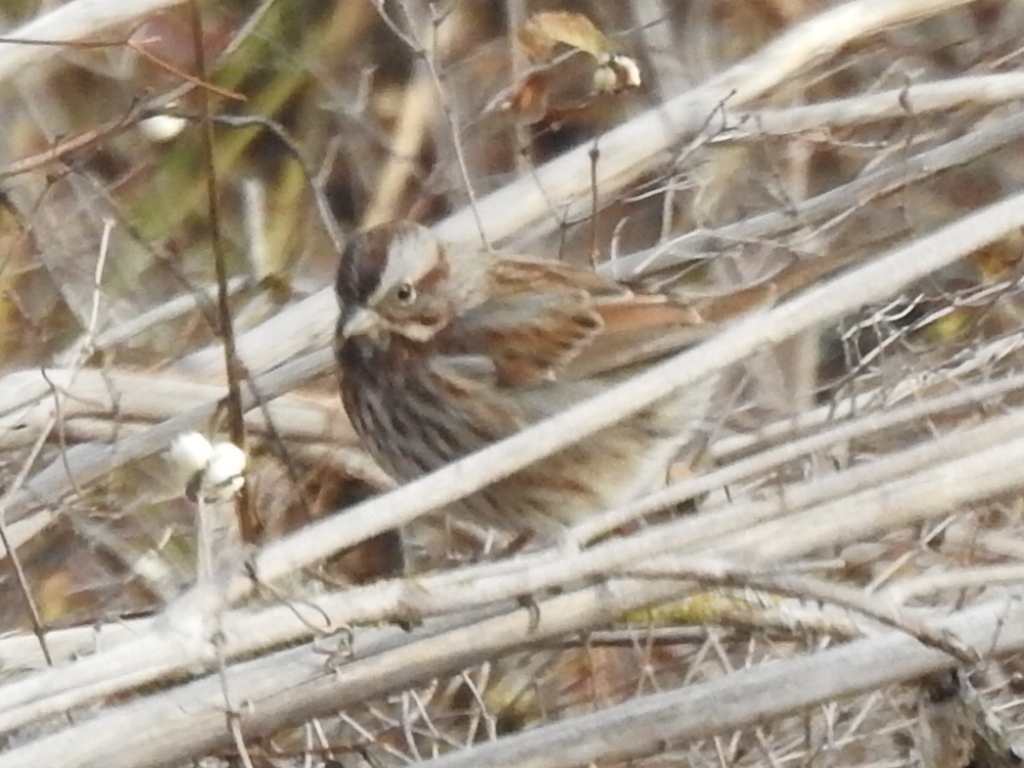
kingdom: Animalia
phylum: Chordata
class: Aves
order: Passeriformes
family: Passerellidae
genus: Melospiza
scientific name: Melospiza melodia
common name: Song sparrow
